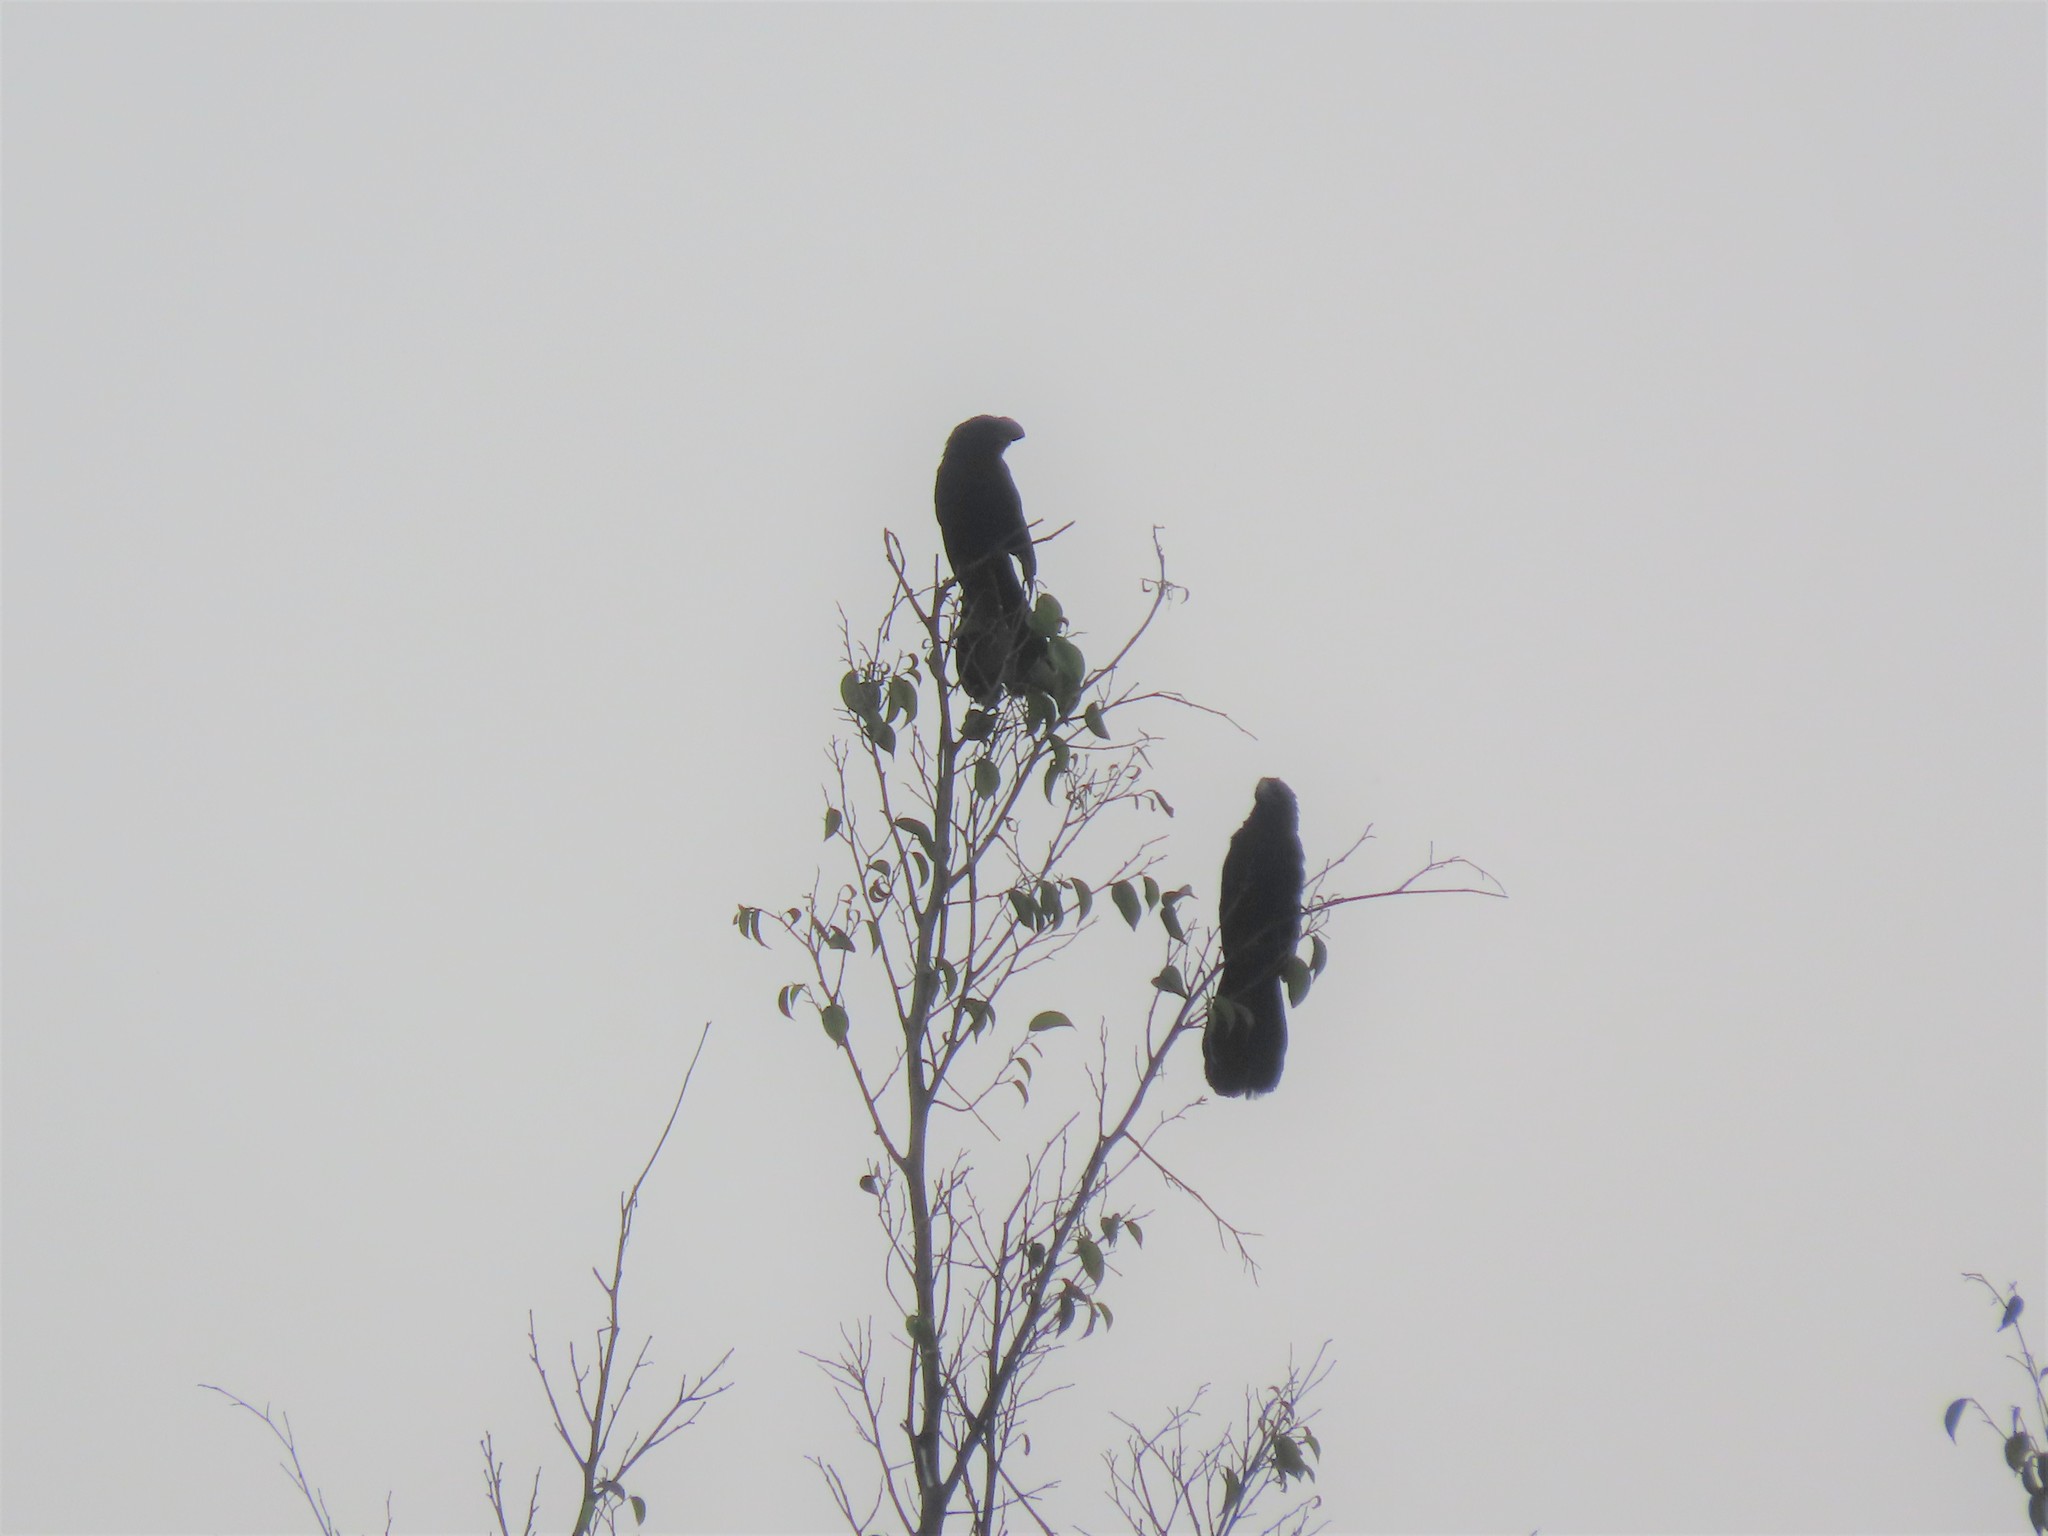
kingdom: Animalia
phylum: Chordata
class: Aves
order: Cuculiformes
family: Cuculidae
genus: Crotophaga
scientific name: Crotophaga ani
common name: Smooth-billed ani
